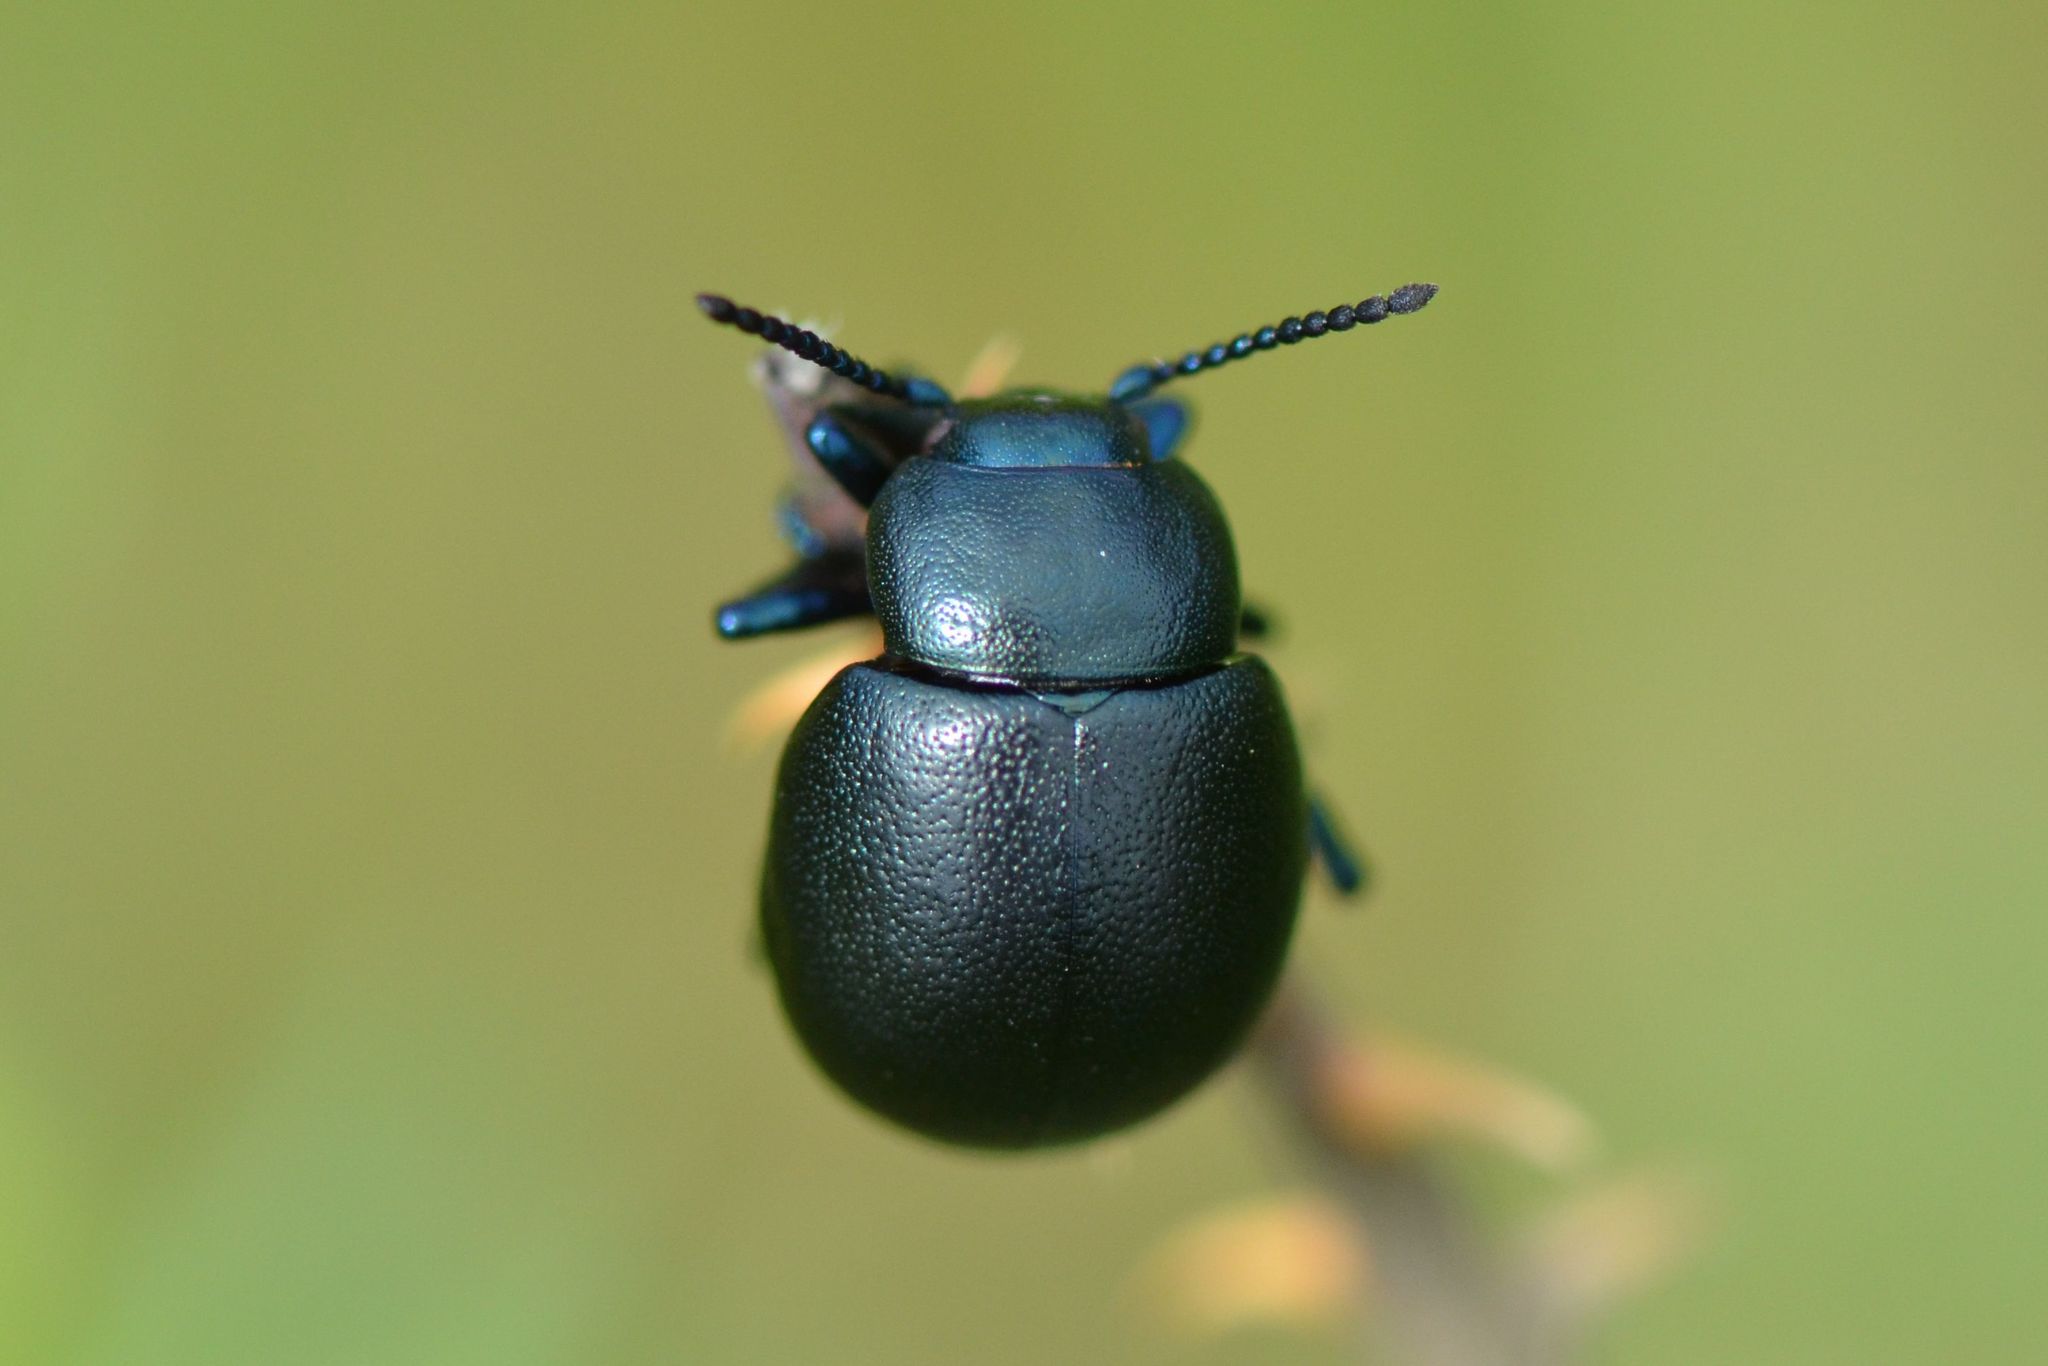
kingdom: Animalia
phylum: Arthropoda
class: Insecta
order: Coleoptera
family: Chrysomelidae
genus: Timarcha
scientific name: Timarcha goettingensis
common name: Small bloody-nosed beetle
